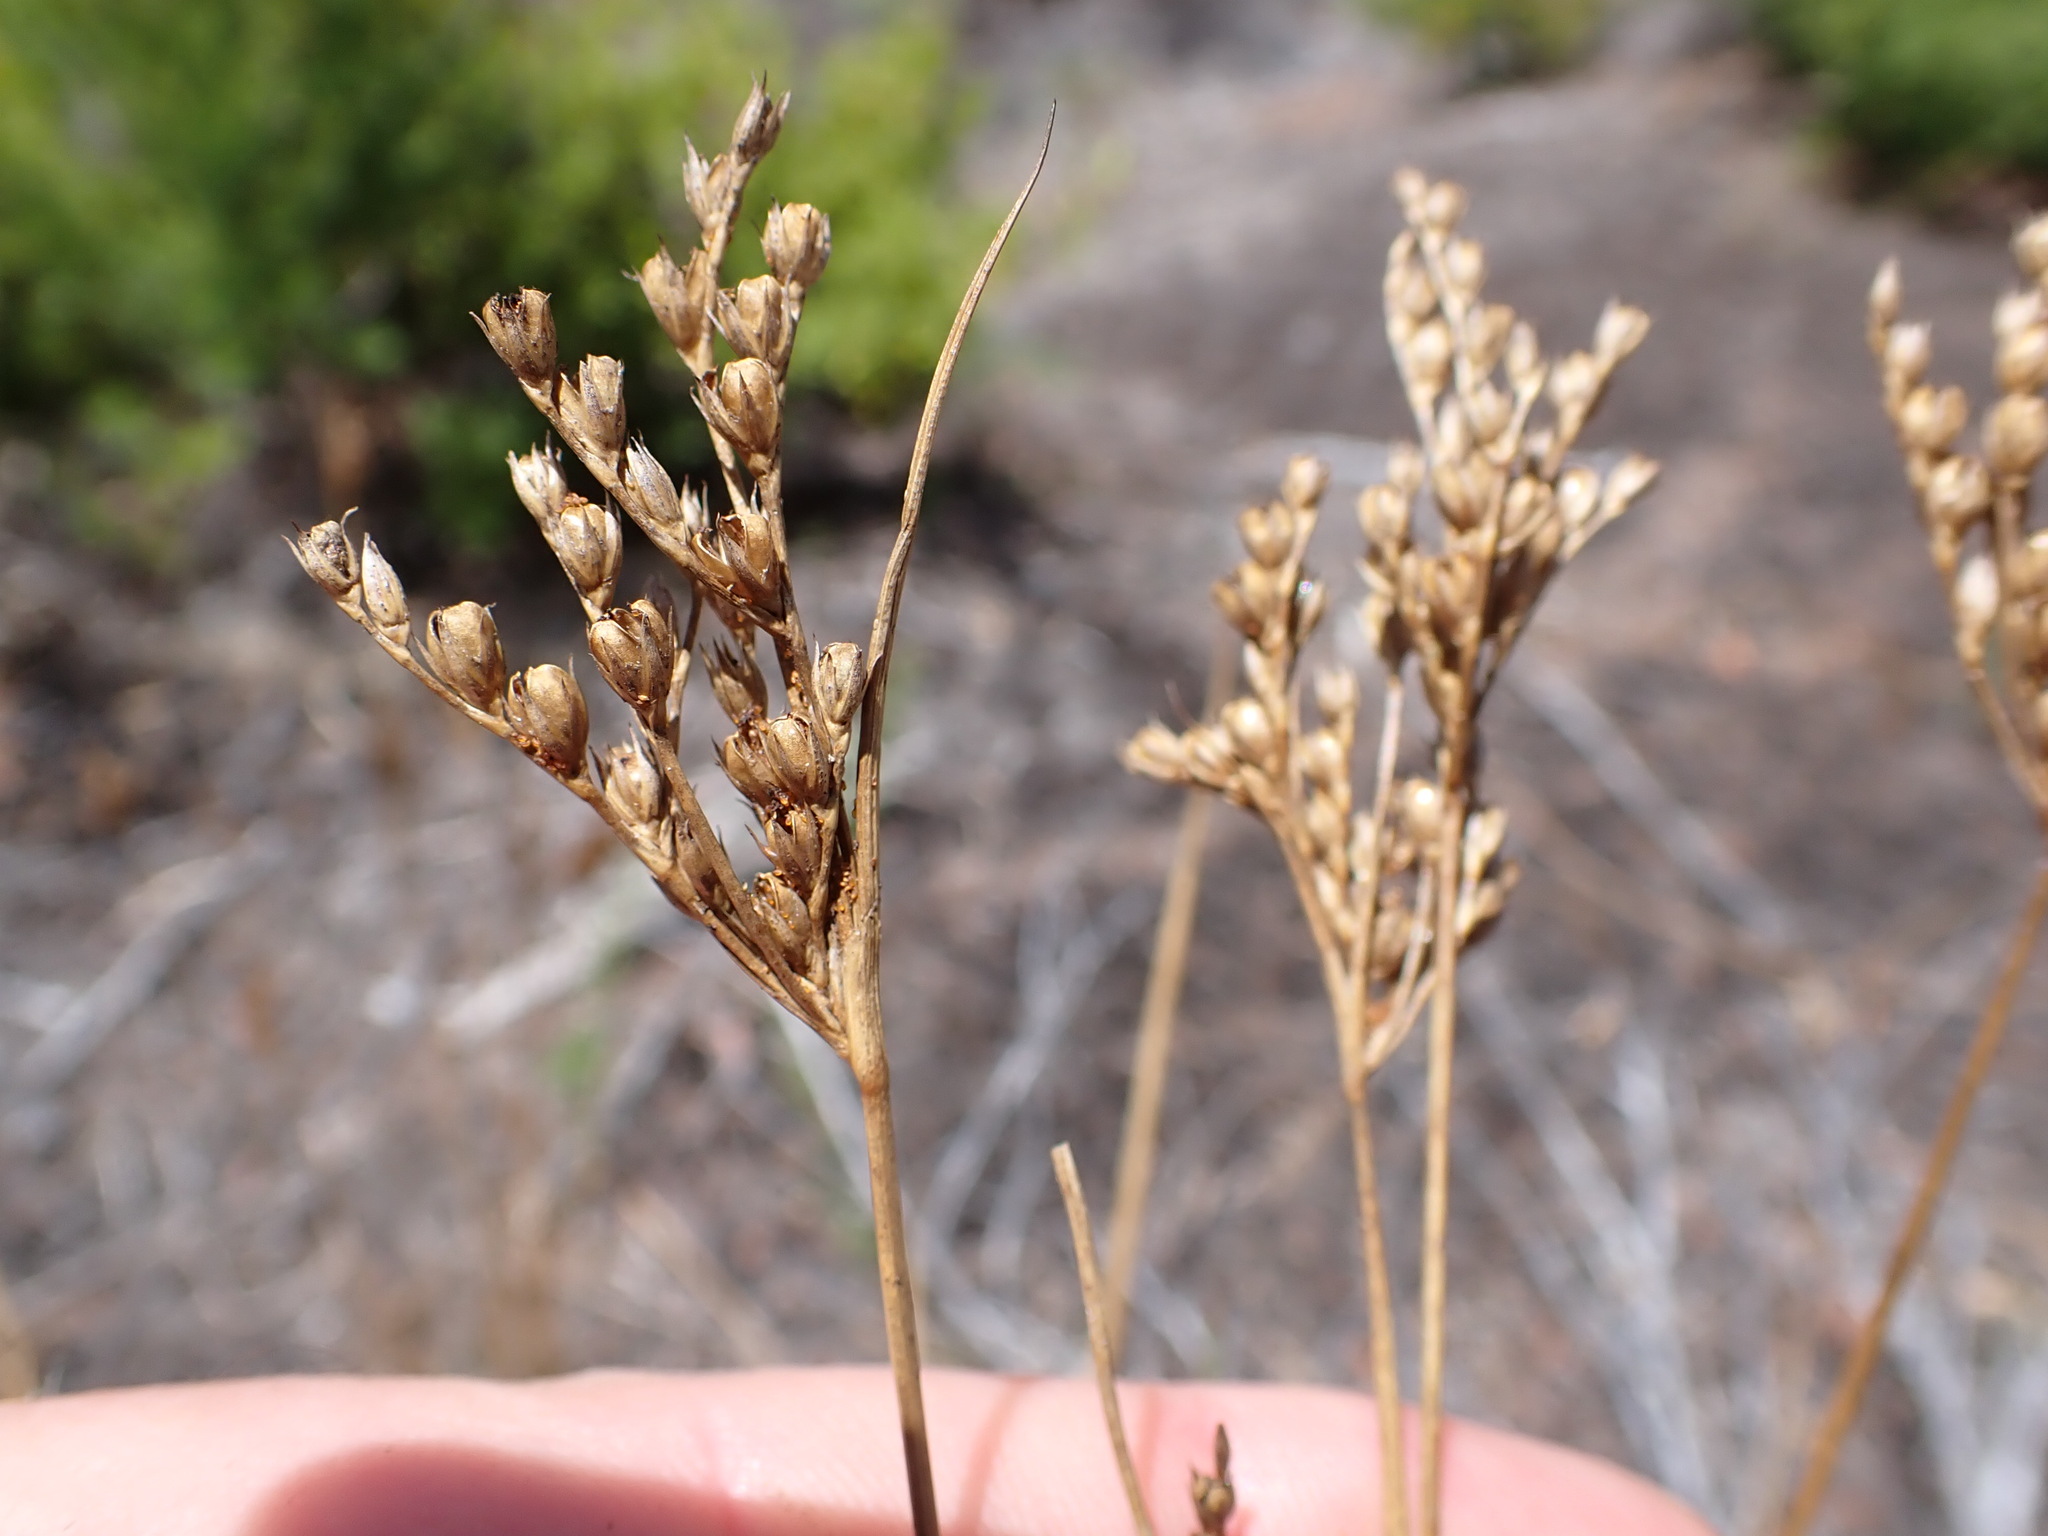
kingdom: Plantae
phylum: Tracheophyta
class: Liliopsida
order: Poales
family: Juncaceae
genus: Juncus
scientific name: Juncus dichotomus
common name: Forked rush
